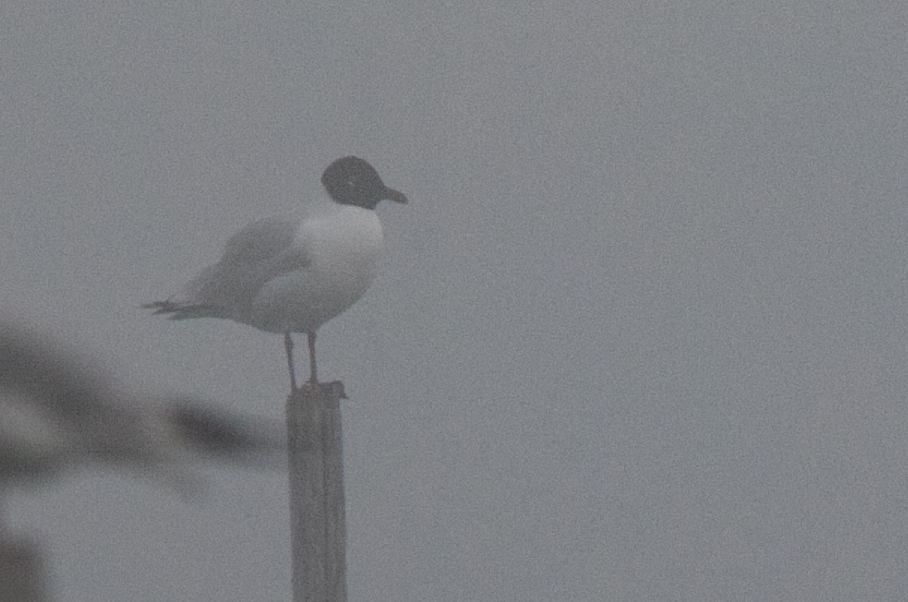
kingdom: Animalia
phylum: Chordata
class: Aves
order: Charadriiformes
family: Laridae
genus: Chroicocephalus
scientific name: Chroicocephalus ridibundus
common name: Black-headed gull
